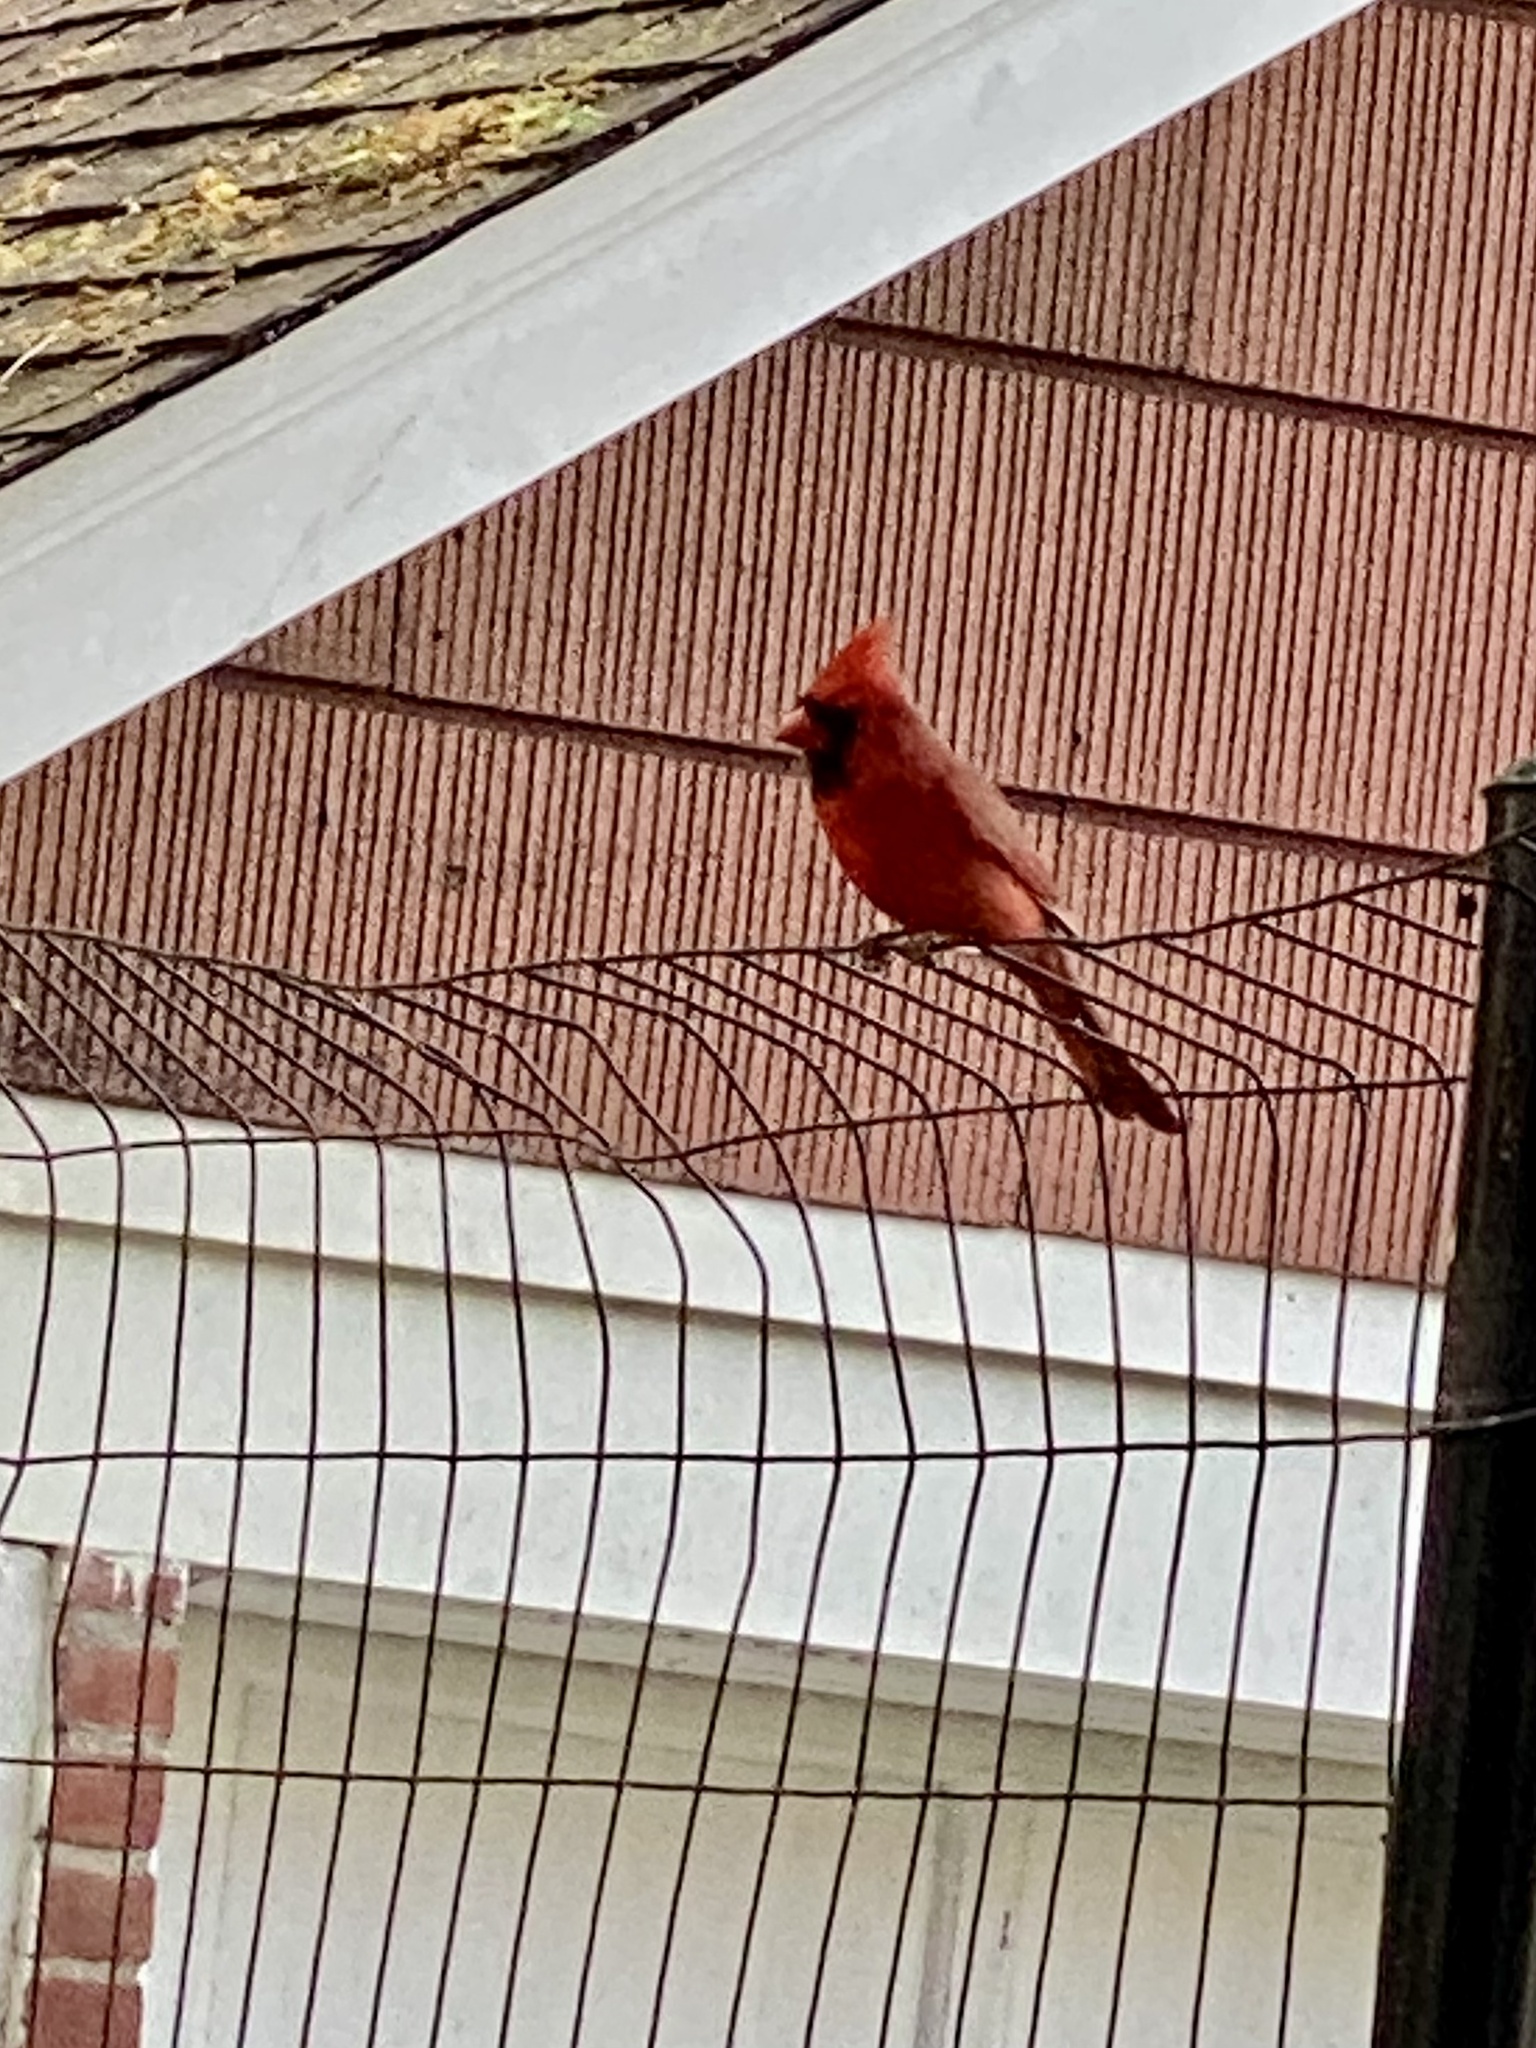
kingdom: Animalia
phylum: Chordata
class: Aves
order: Passeriformes
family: Cardinalidae
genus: Cardinalis
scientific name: Cardinalis cardinalis
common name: Northern cardinal
